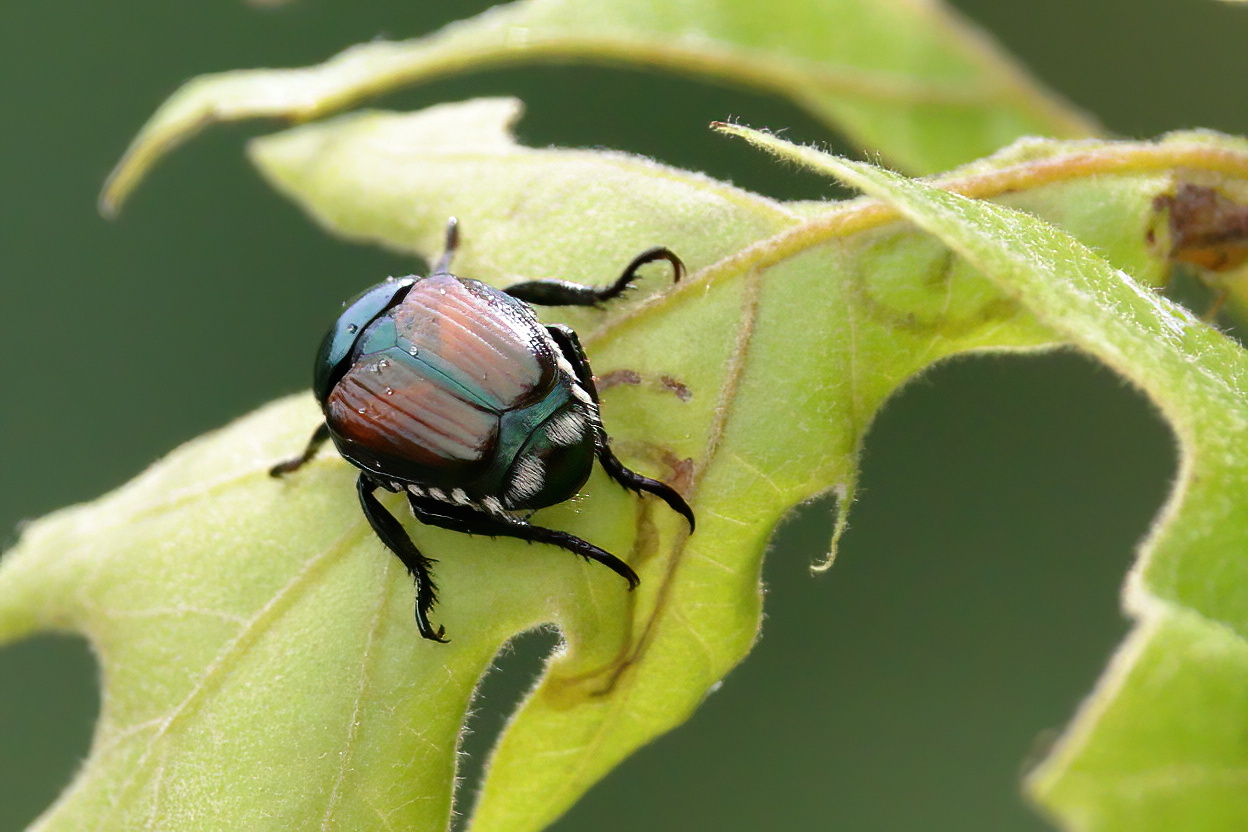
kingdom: Animalia
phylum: Arthropoda
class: Insecta
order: Coleoptera
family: Scarabaeidae
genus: Popillia
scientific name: Popillia japonica
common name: Japanese beetle
